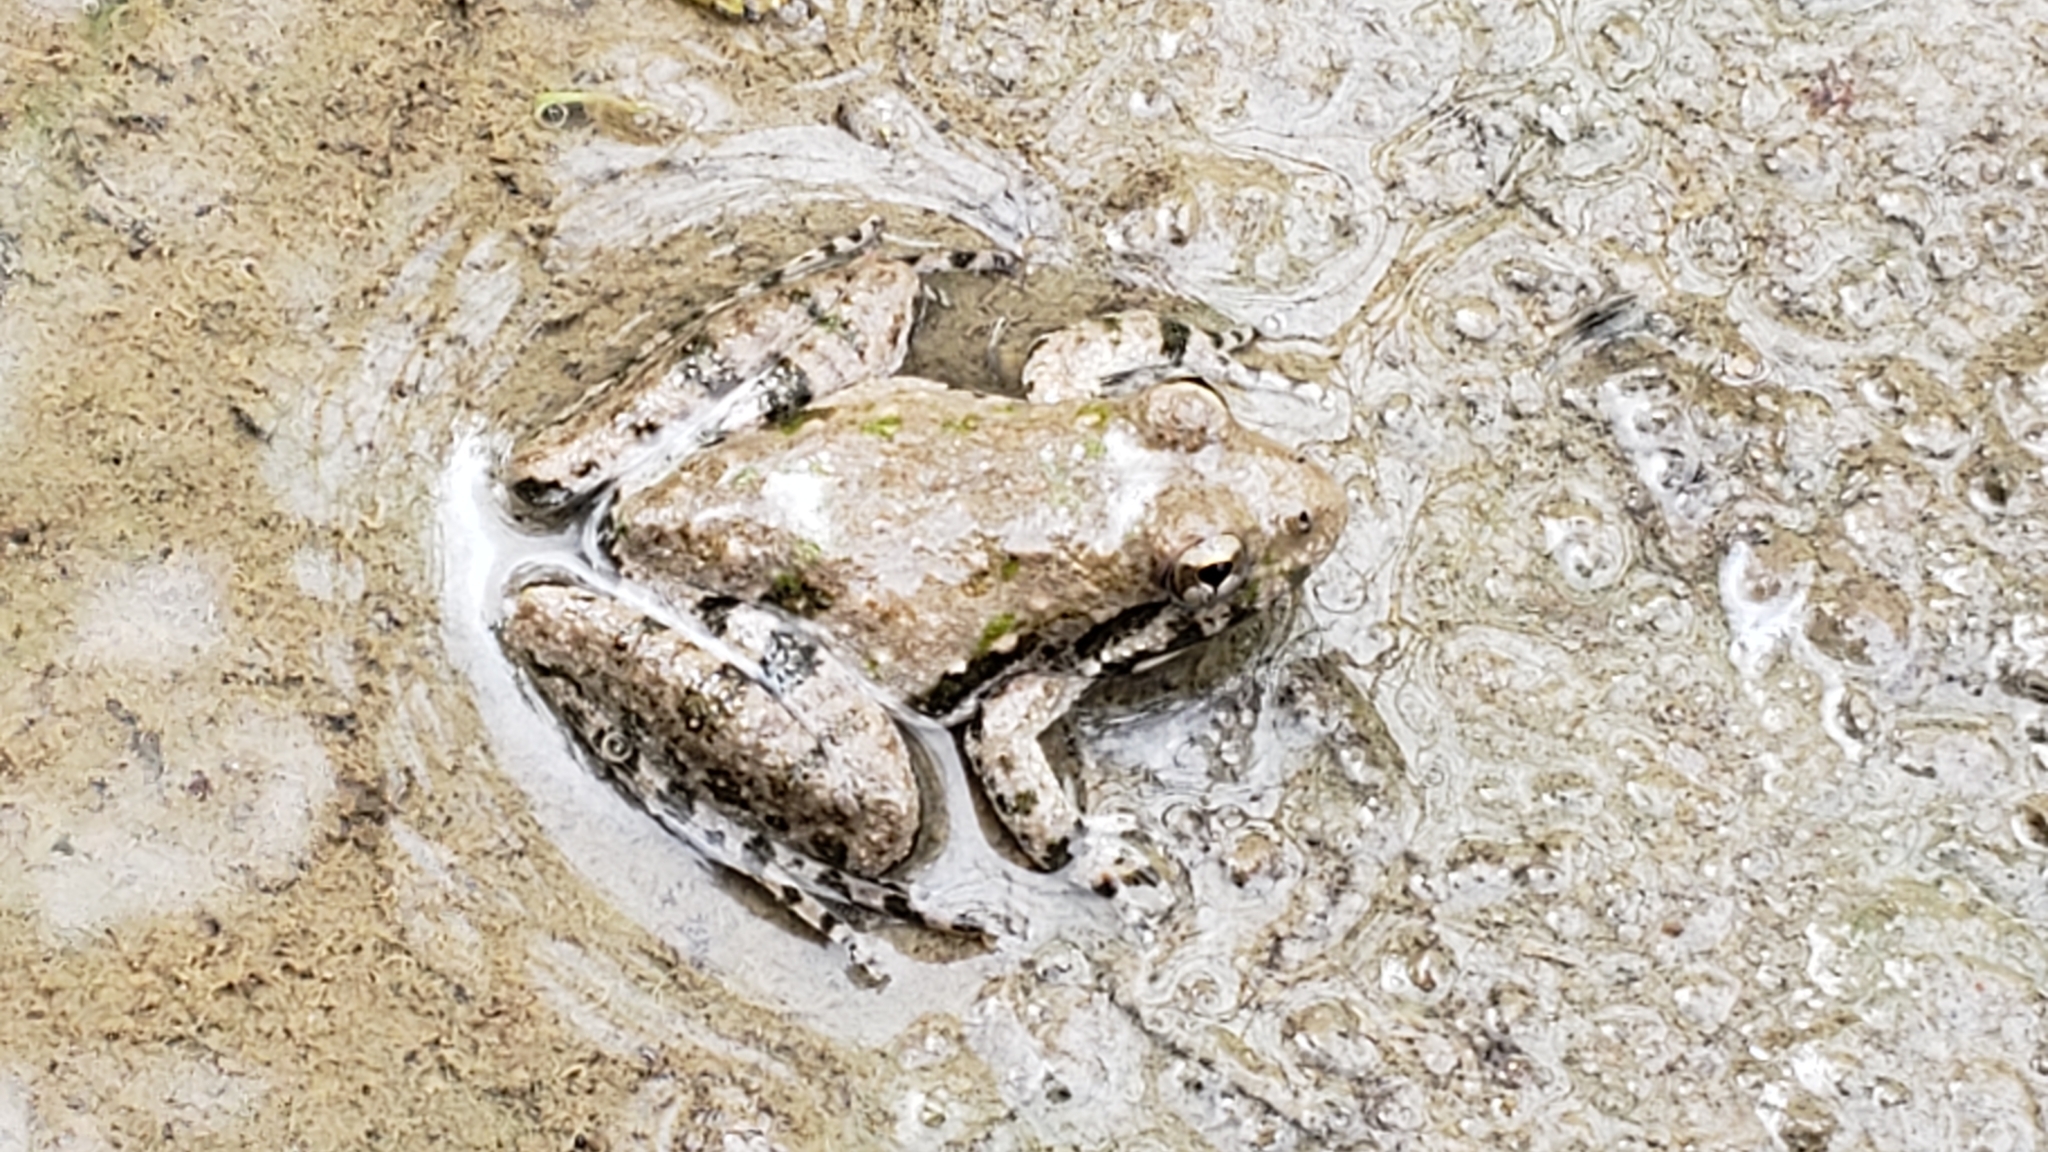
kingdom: Animalia
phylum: Chordata
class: Amphibia
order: Anura
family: Hylidae
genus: Acris
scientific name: Acris blanchardi
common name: Blanchard's cricket frog
